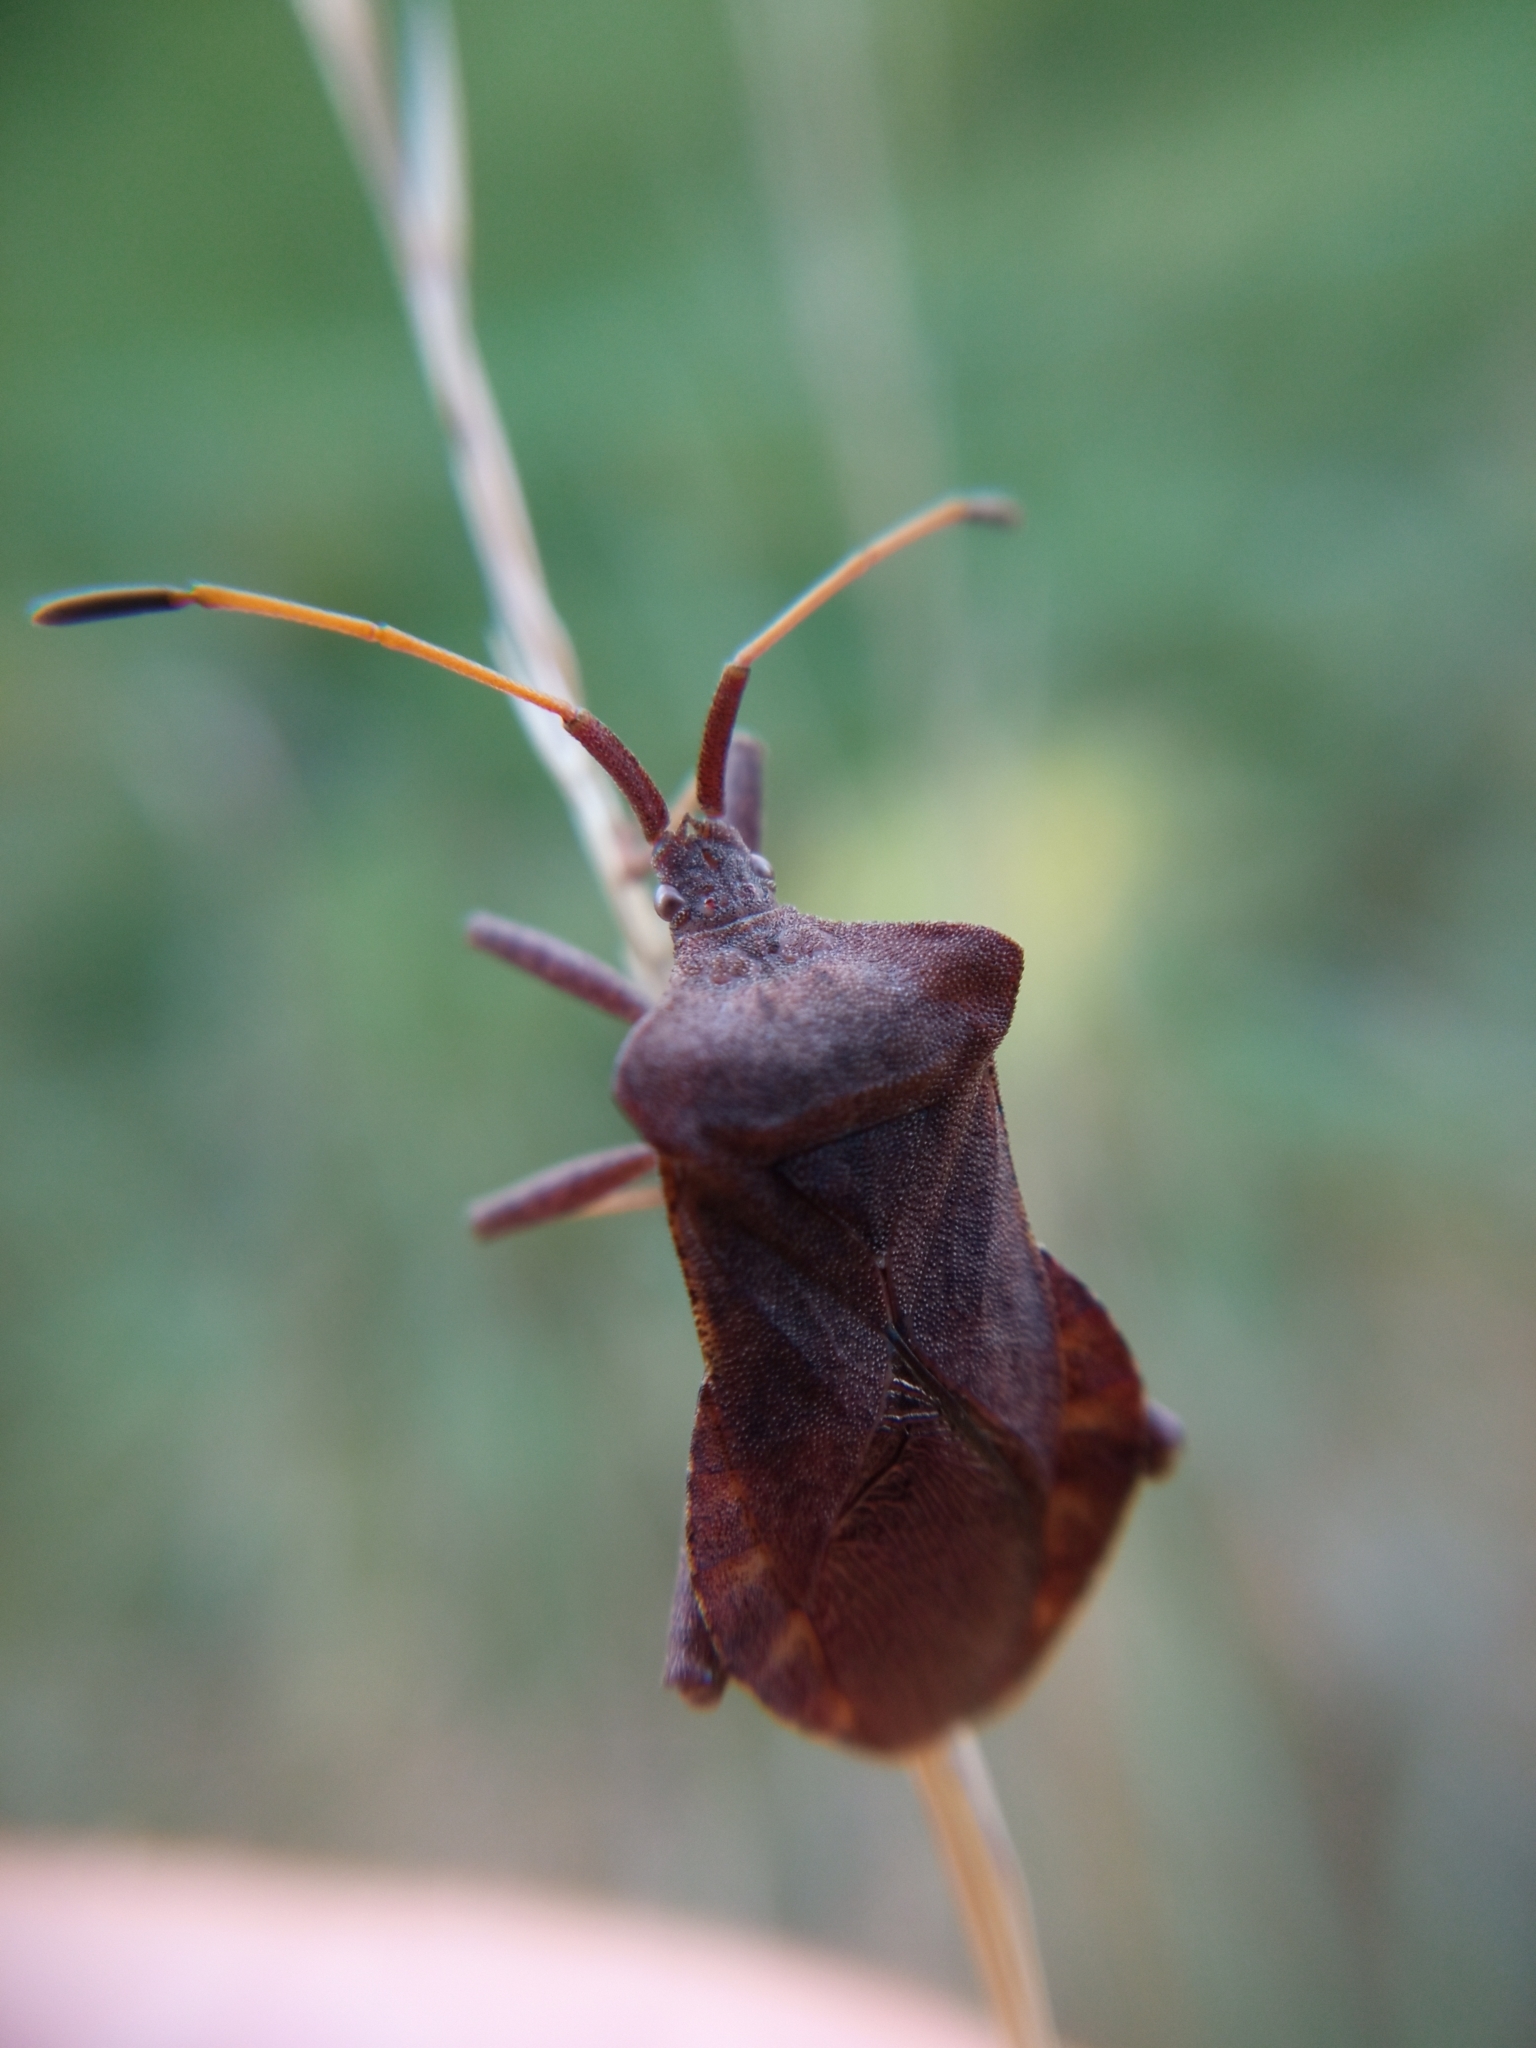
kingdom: Animalia
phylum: Arthropoda
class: Insecta
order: Hemiptera
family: Coreidae
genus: Coreus
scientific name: Coreus marginatus
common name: Dock bug
